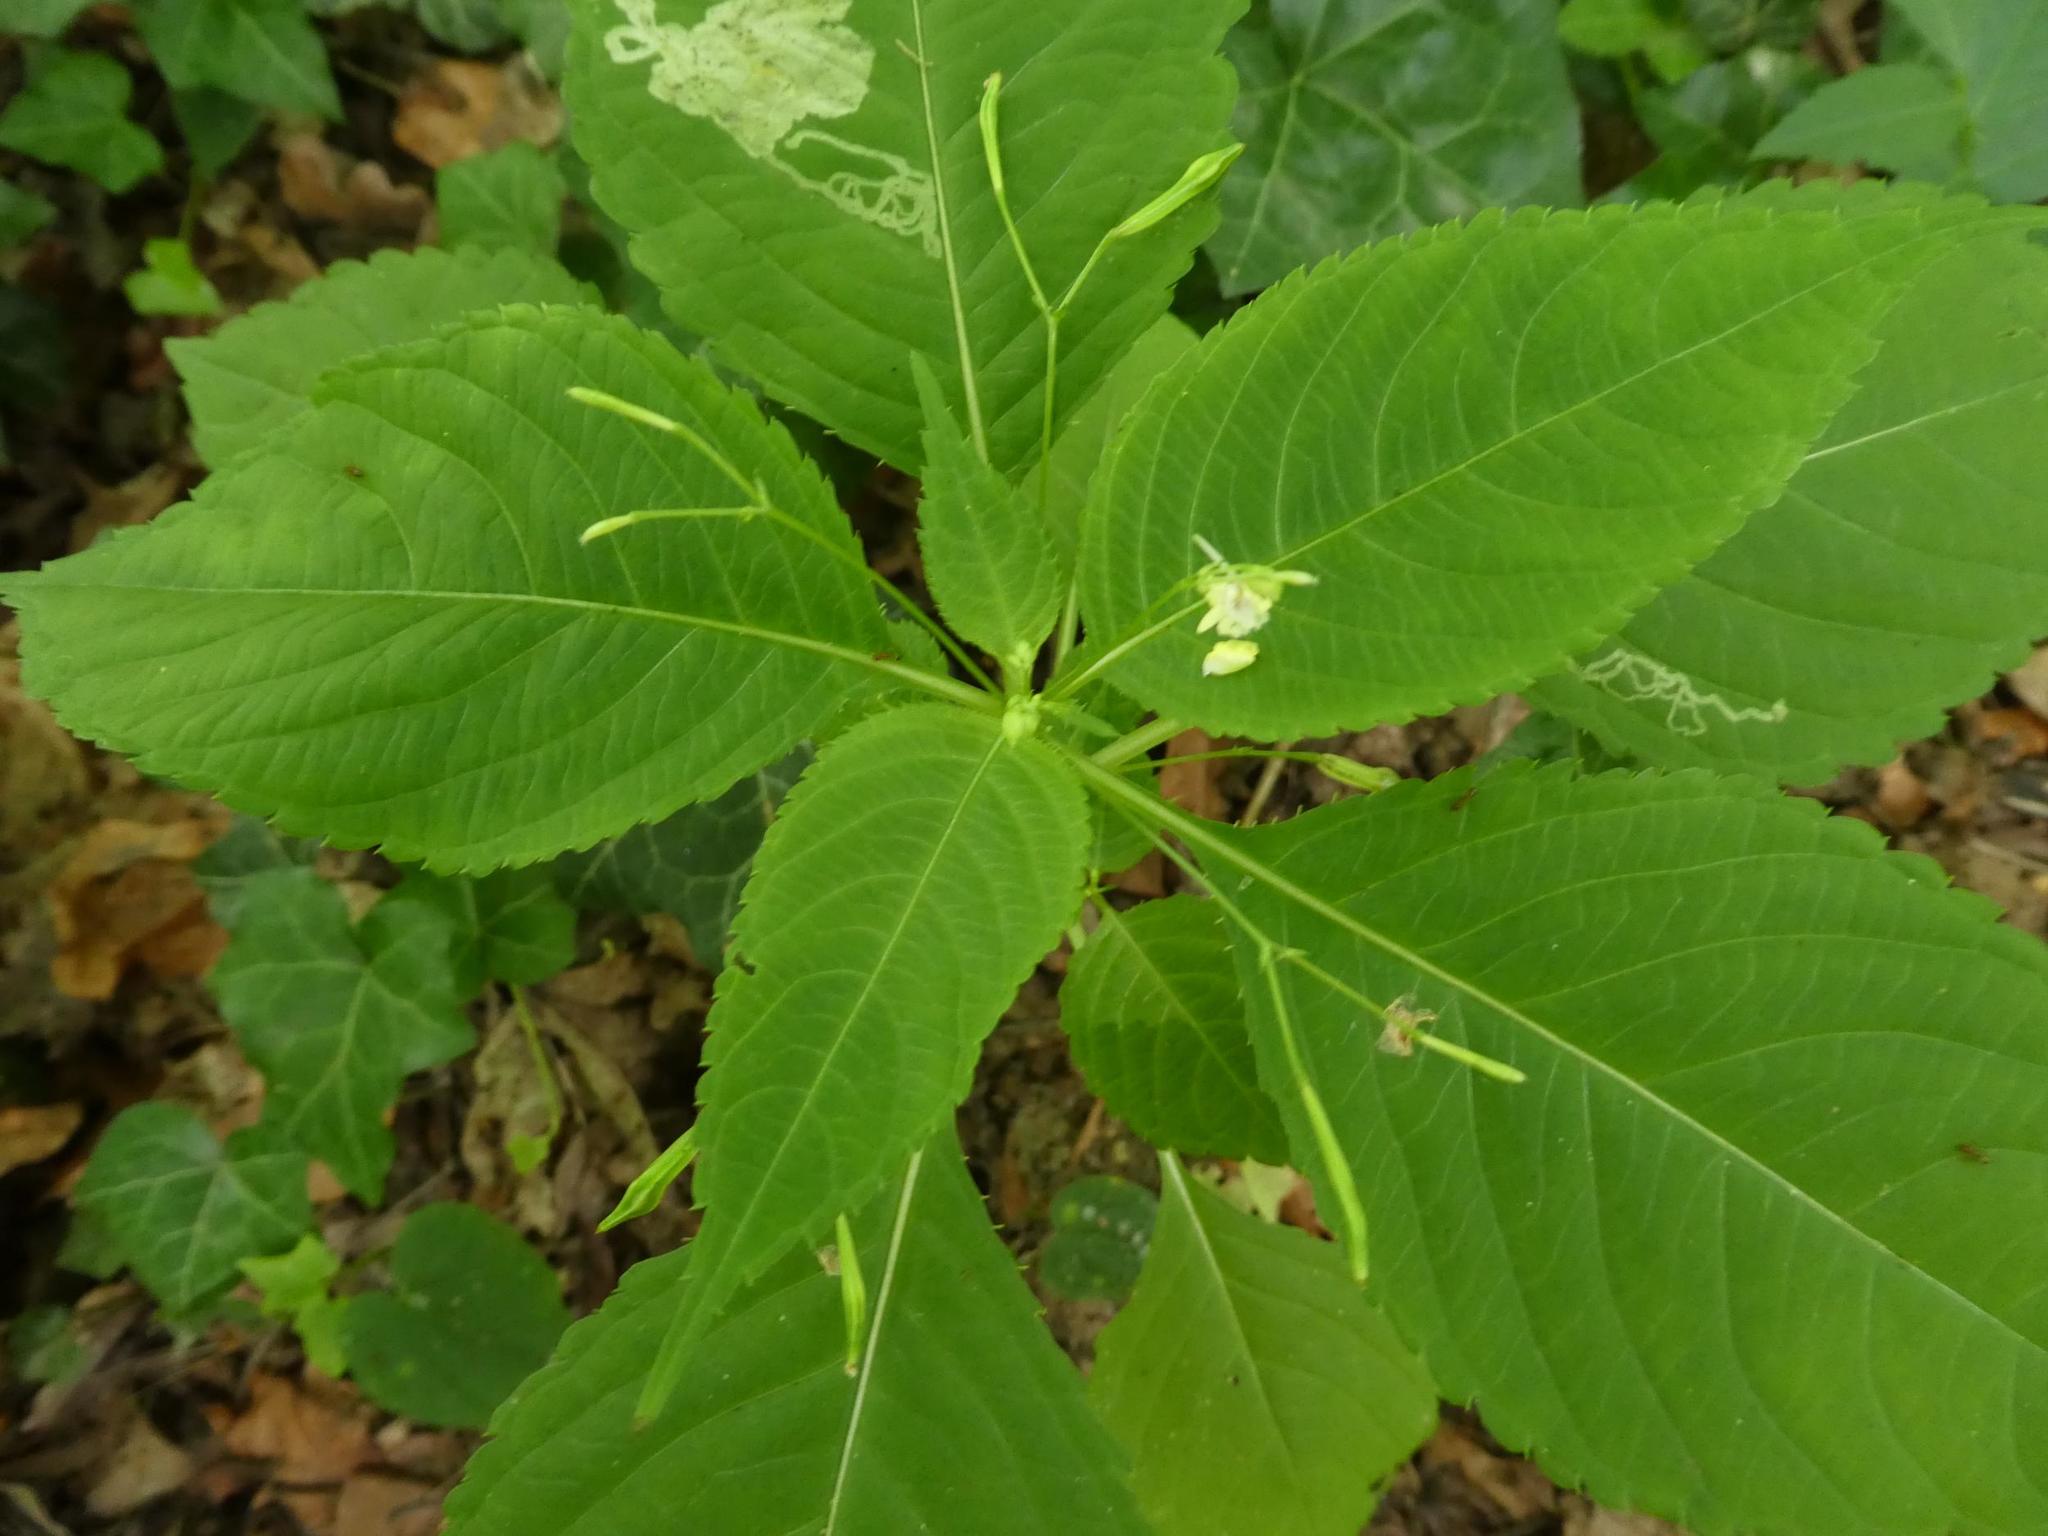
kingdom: Plantae
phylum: Tracheophyta
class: Magnoliopsida
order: Ericales
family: Balsaminaceae
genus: Impatiens
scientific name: Impatiens parviflora
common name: Small balsam
